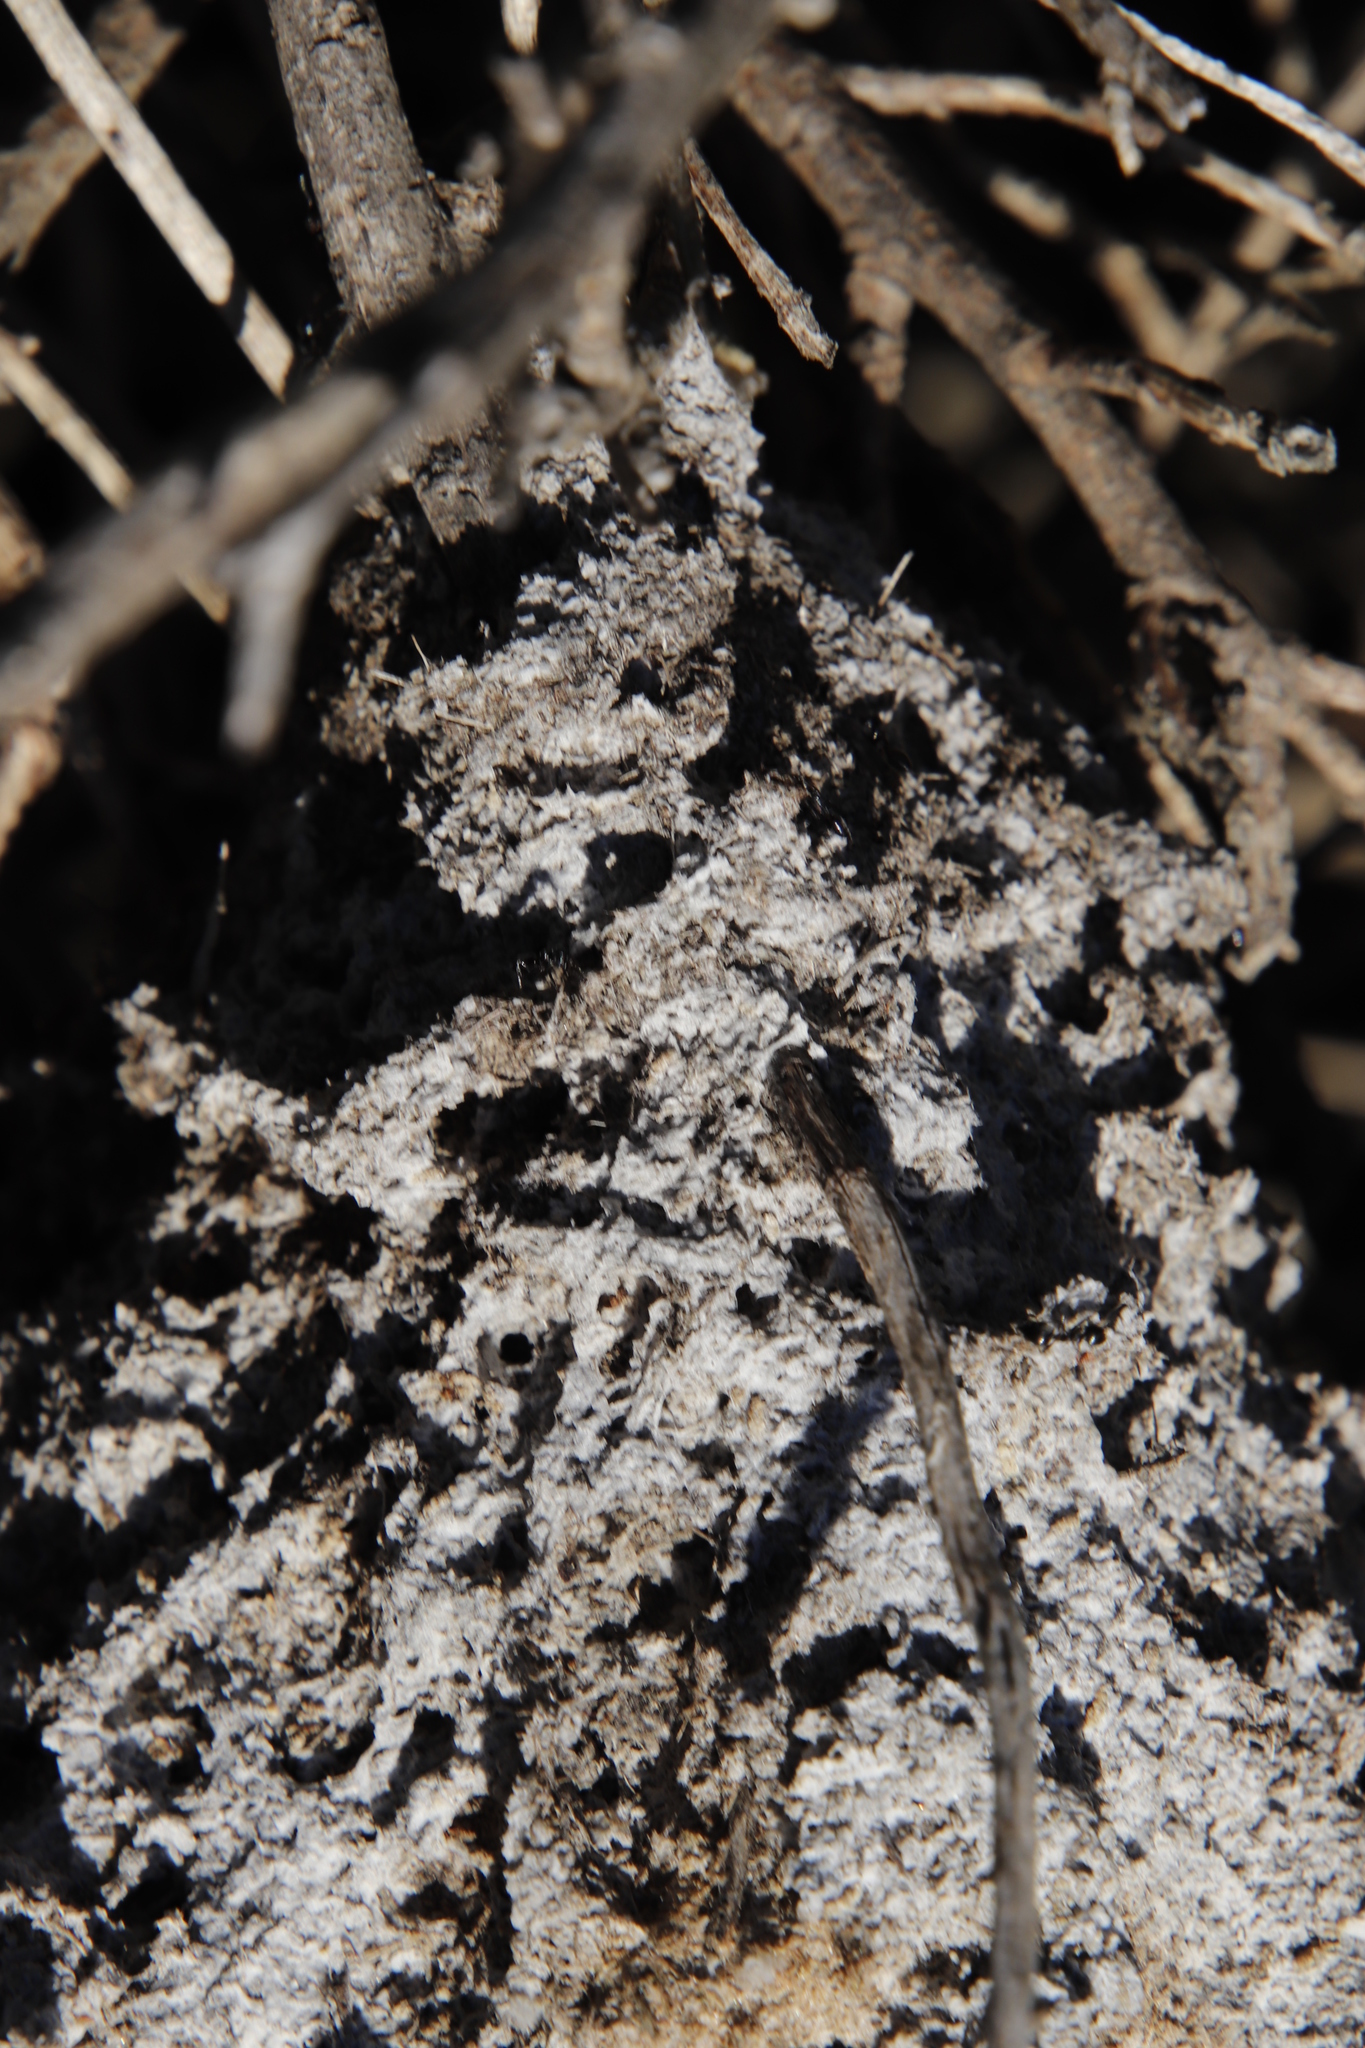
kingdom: Animalia
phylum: Arthropoda
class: Insecta
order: Hymenoptera
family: Formicidae
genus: Crematogaster
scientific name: Crematogaster peringueyi
